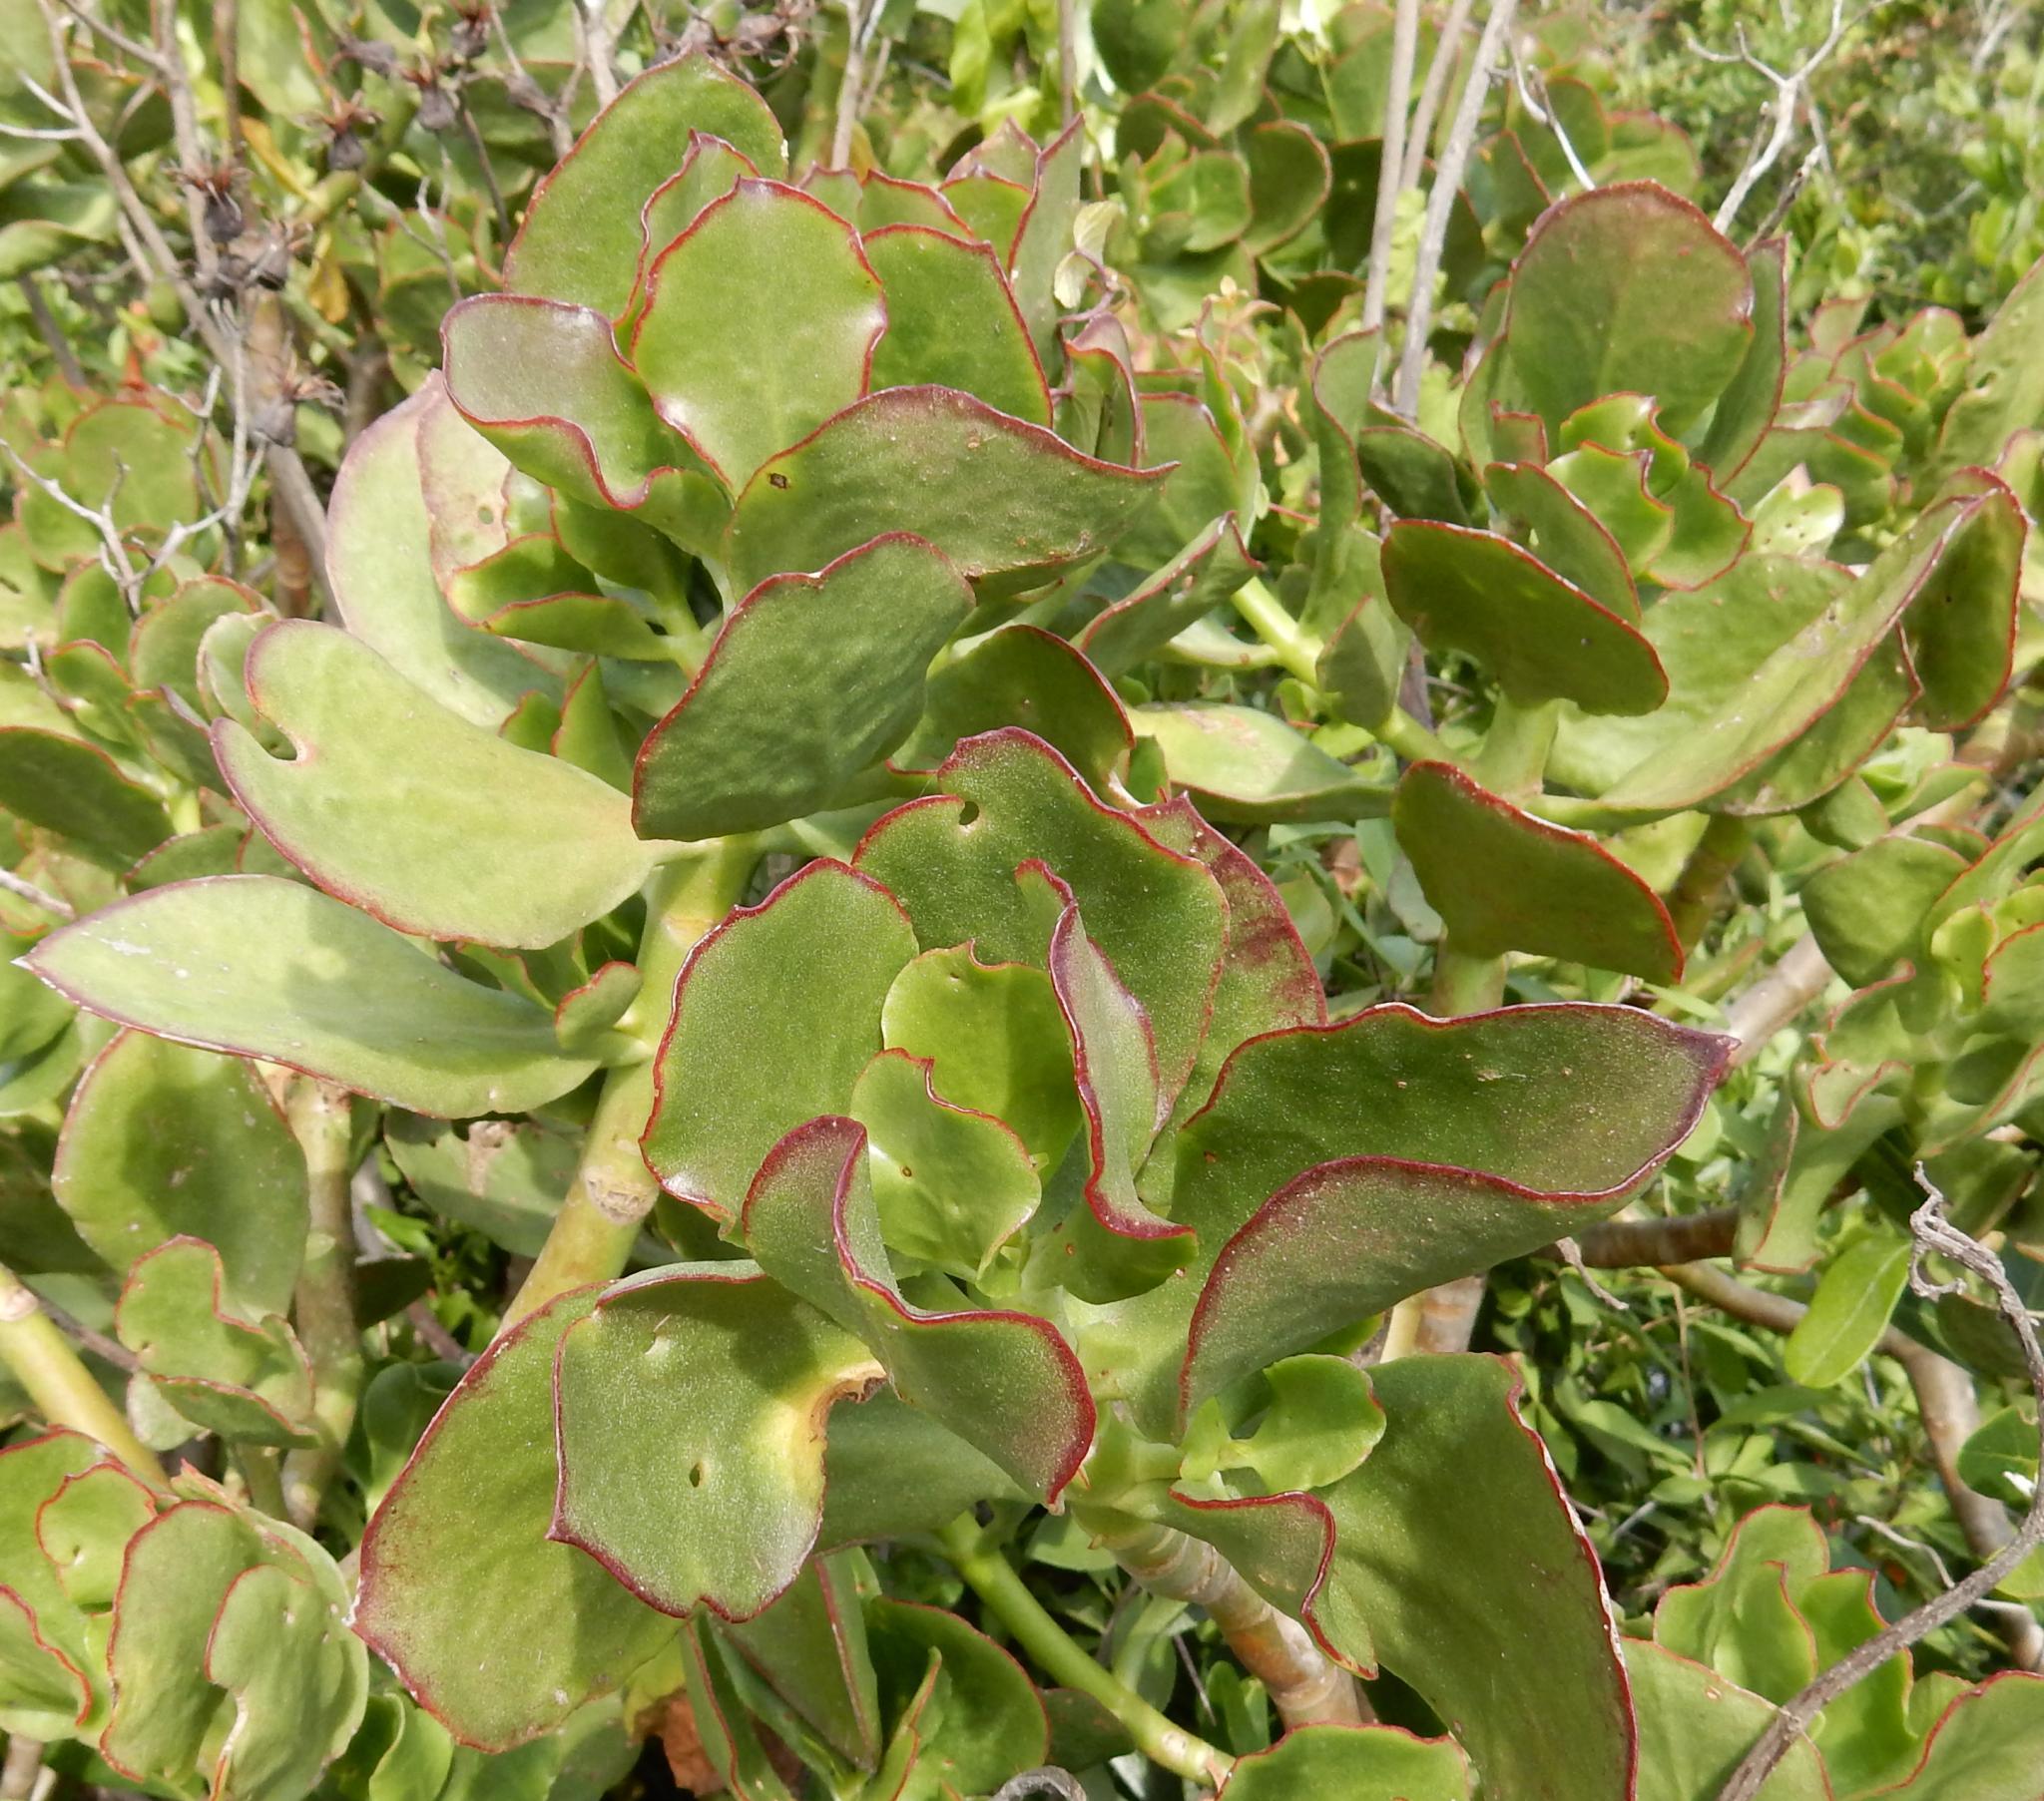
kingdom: Plantae
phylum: Tracheophyta
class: Magnoliopsida
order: Saxifragales
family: Crassulaceae
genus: Cotyledon
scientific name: Cotyledon velutina
